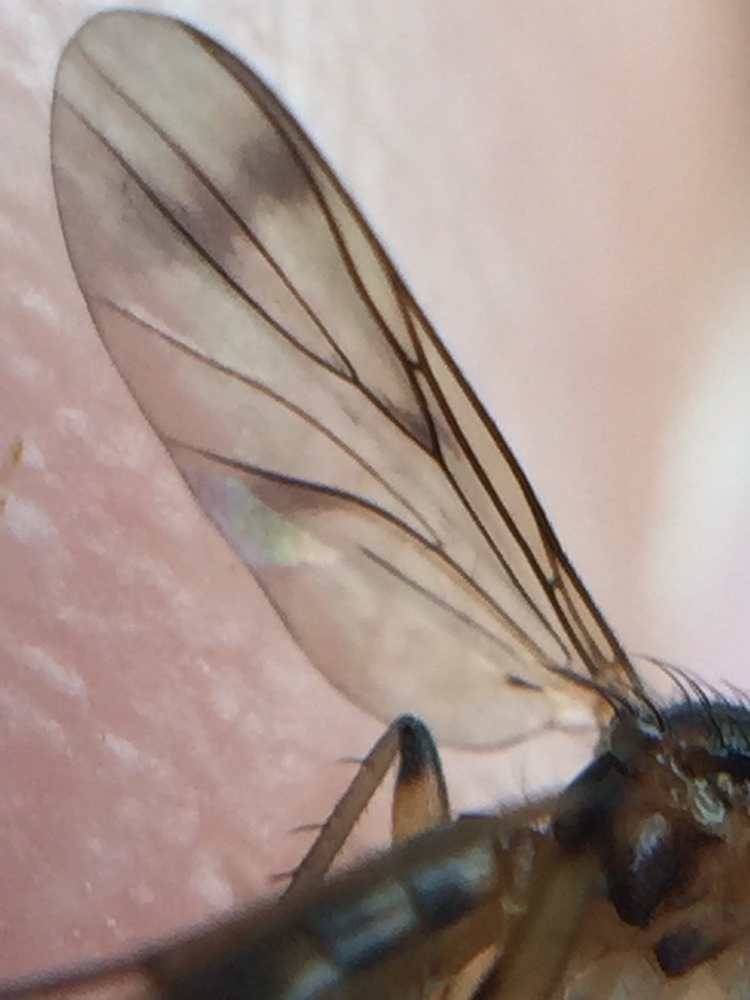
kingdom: Animalia
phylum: Arthropoda
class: Insecta
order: Diptera
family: Mycetophilidae
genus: Leia
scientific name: Leia arsona
